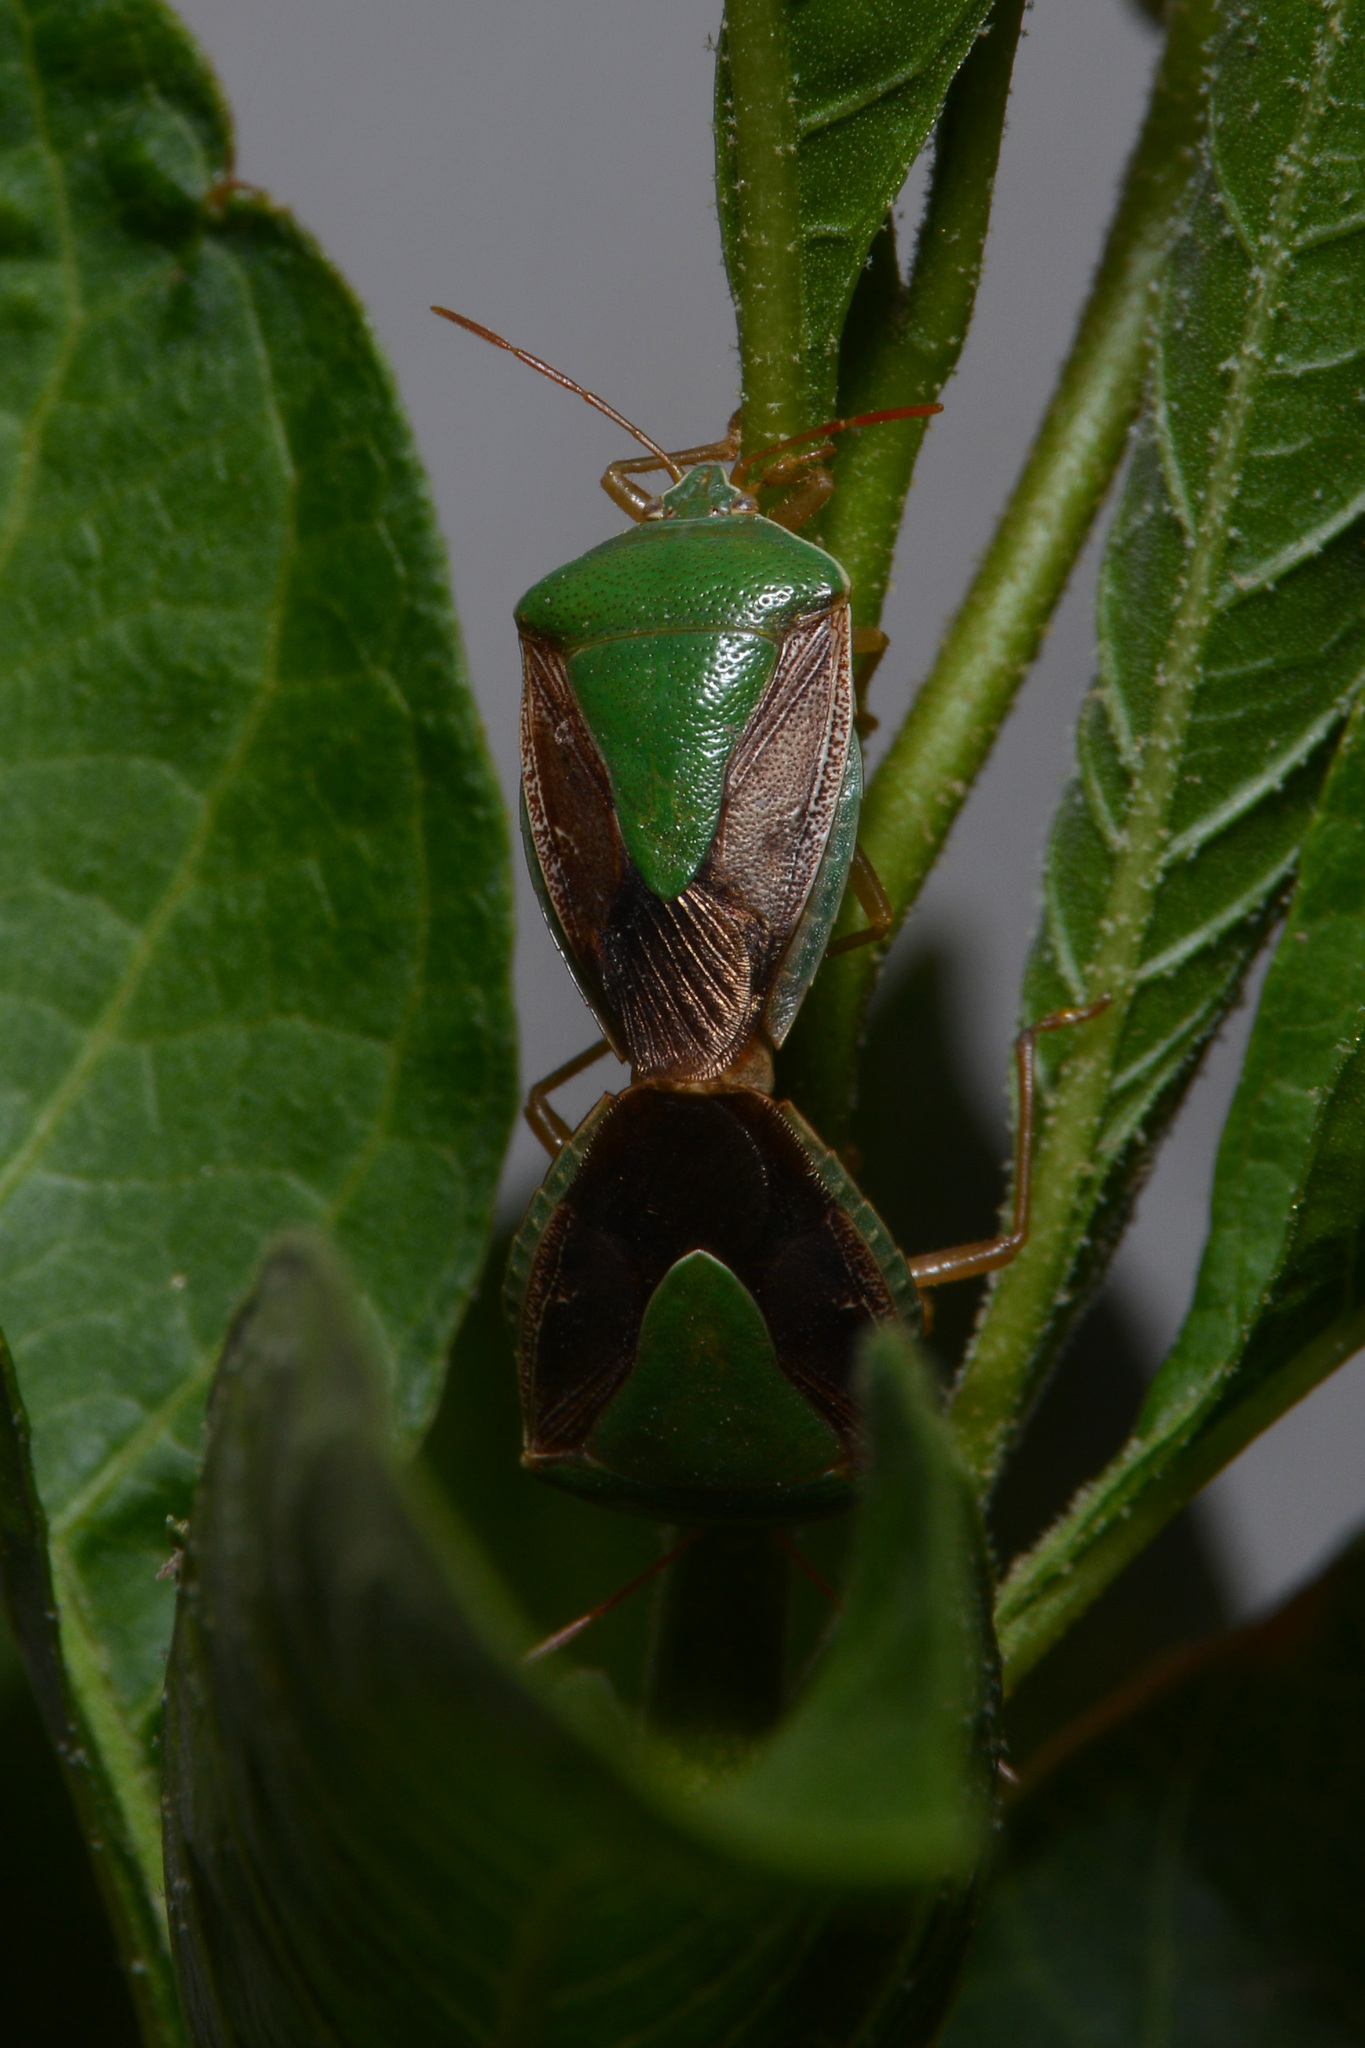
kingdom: Animalia
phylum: Arthropoda
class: Insecta
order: Hemiptera
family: Pentatomidae
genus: Edessa
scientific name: Edessa meditabunda
